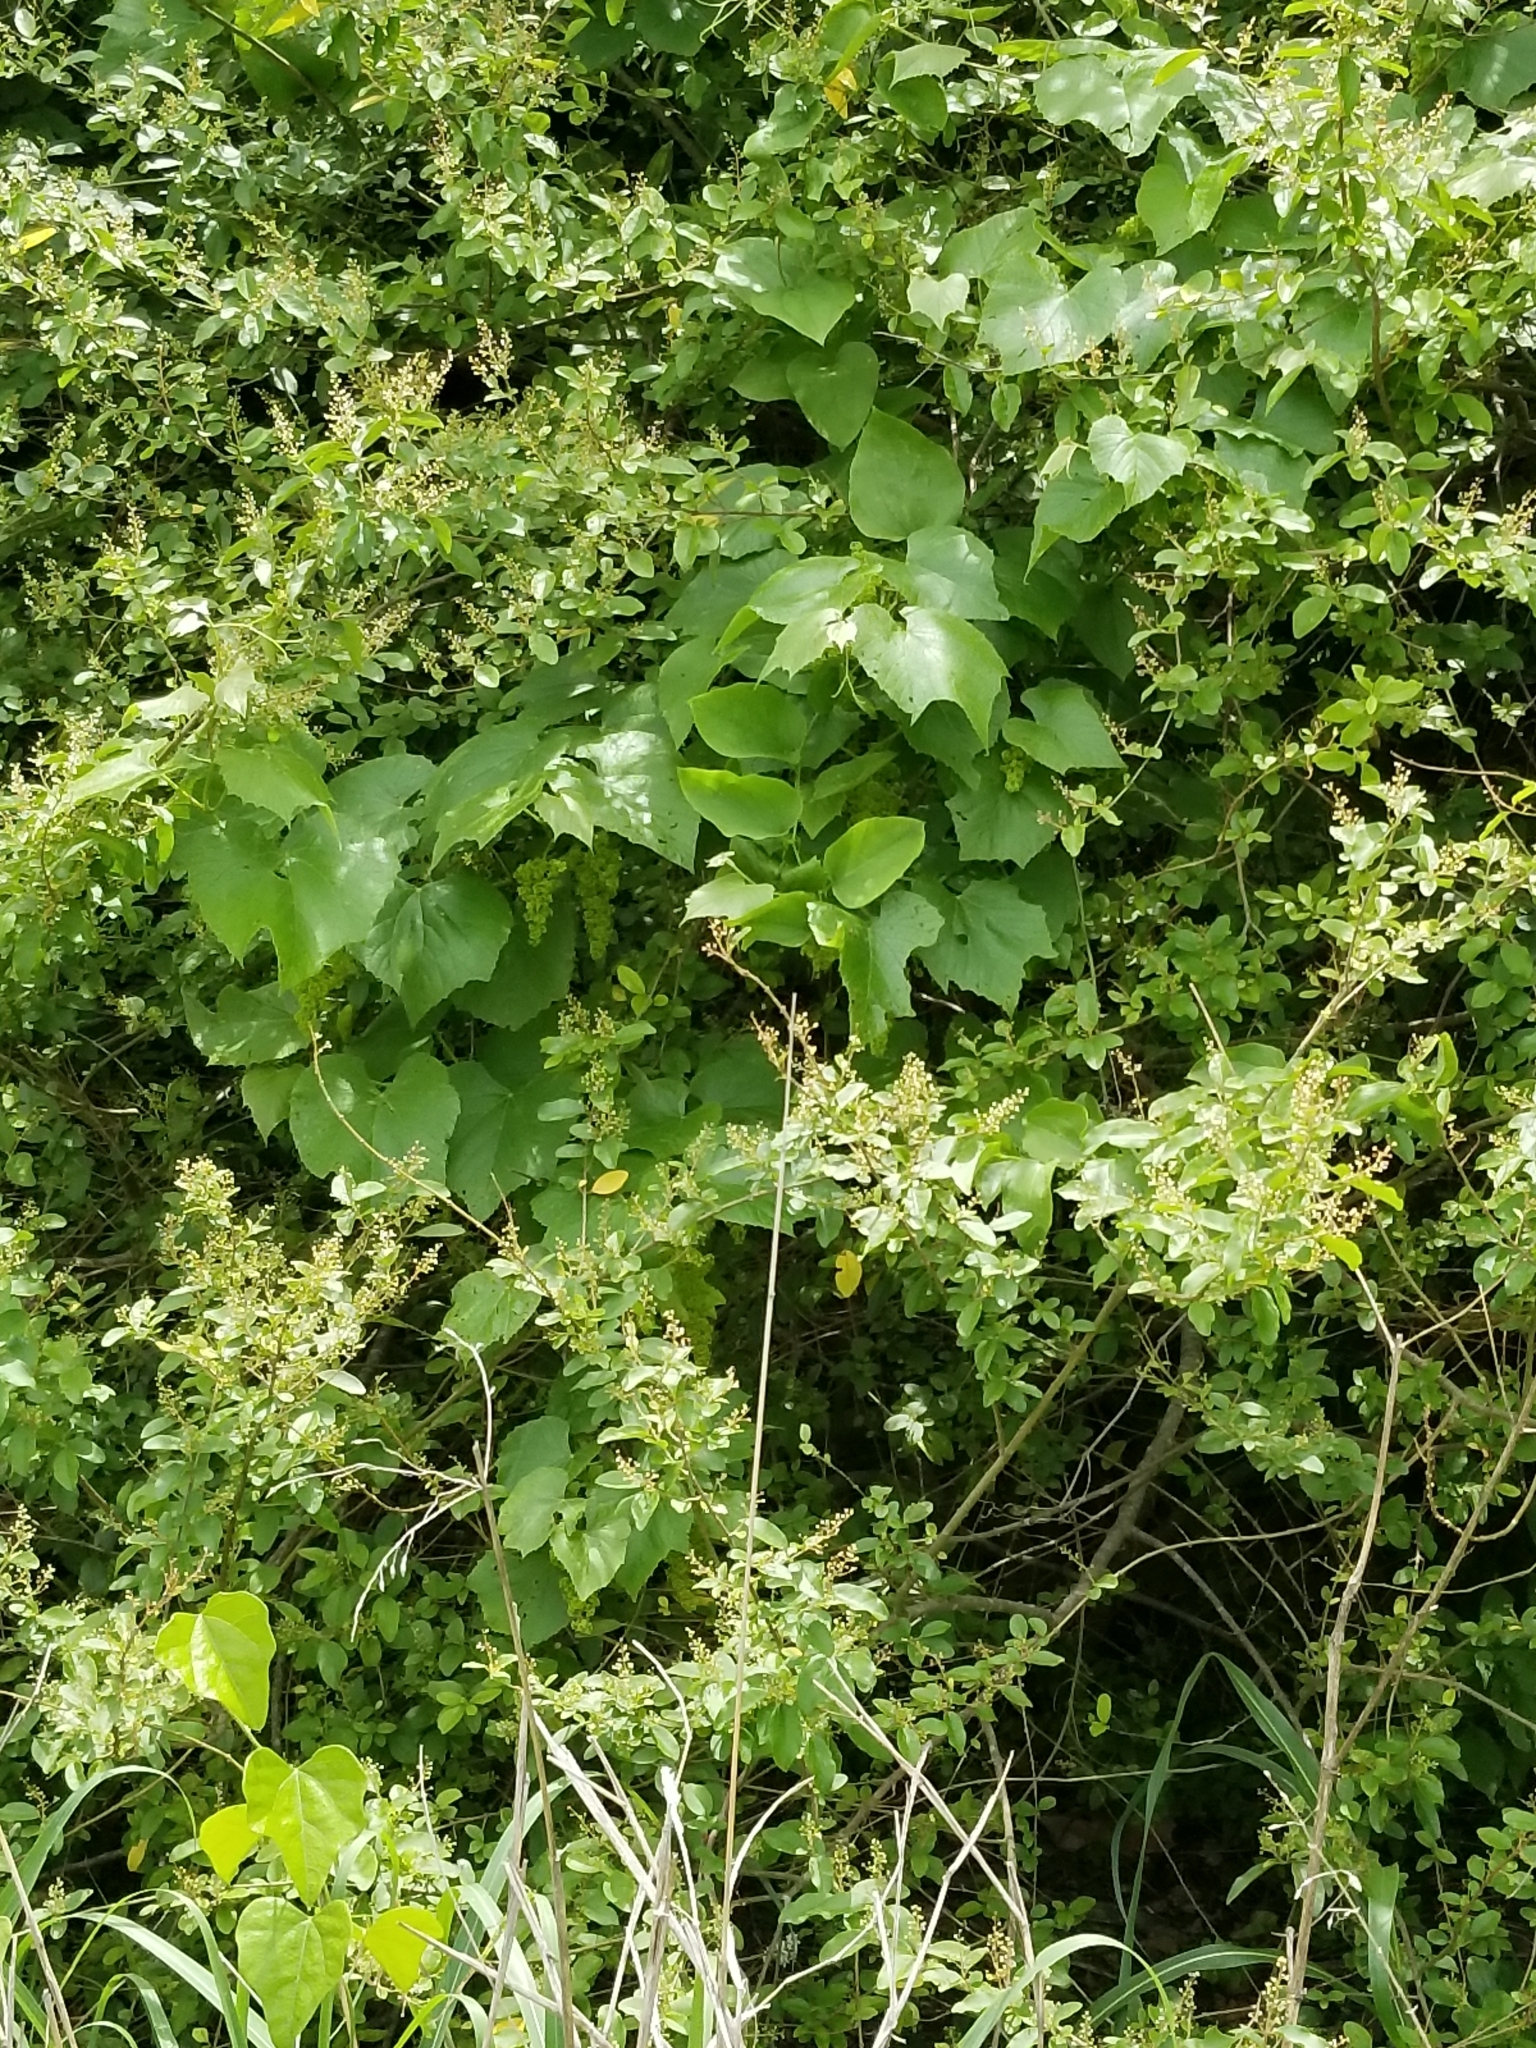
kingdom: Plantae
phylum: Tracheophyta
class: Magnoliopsida
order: Lamiales
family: Oleaceae
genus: Ligustrum
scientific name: Ligustrum sinense
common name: Chinese privet
